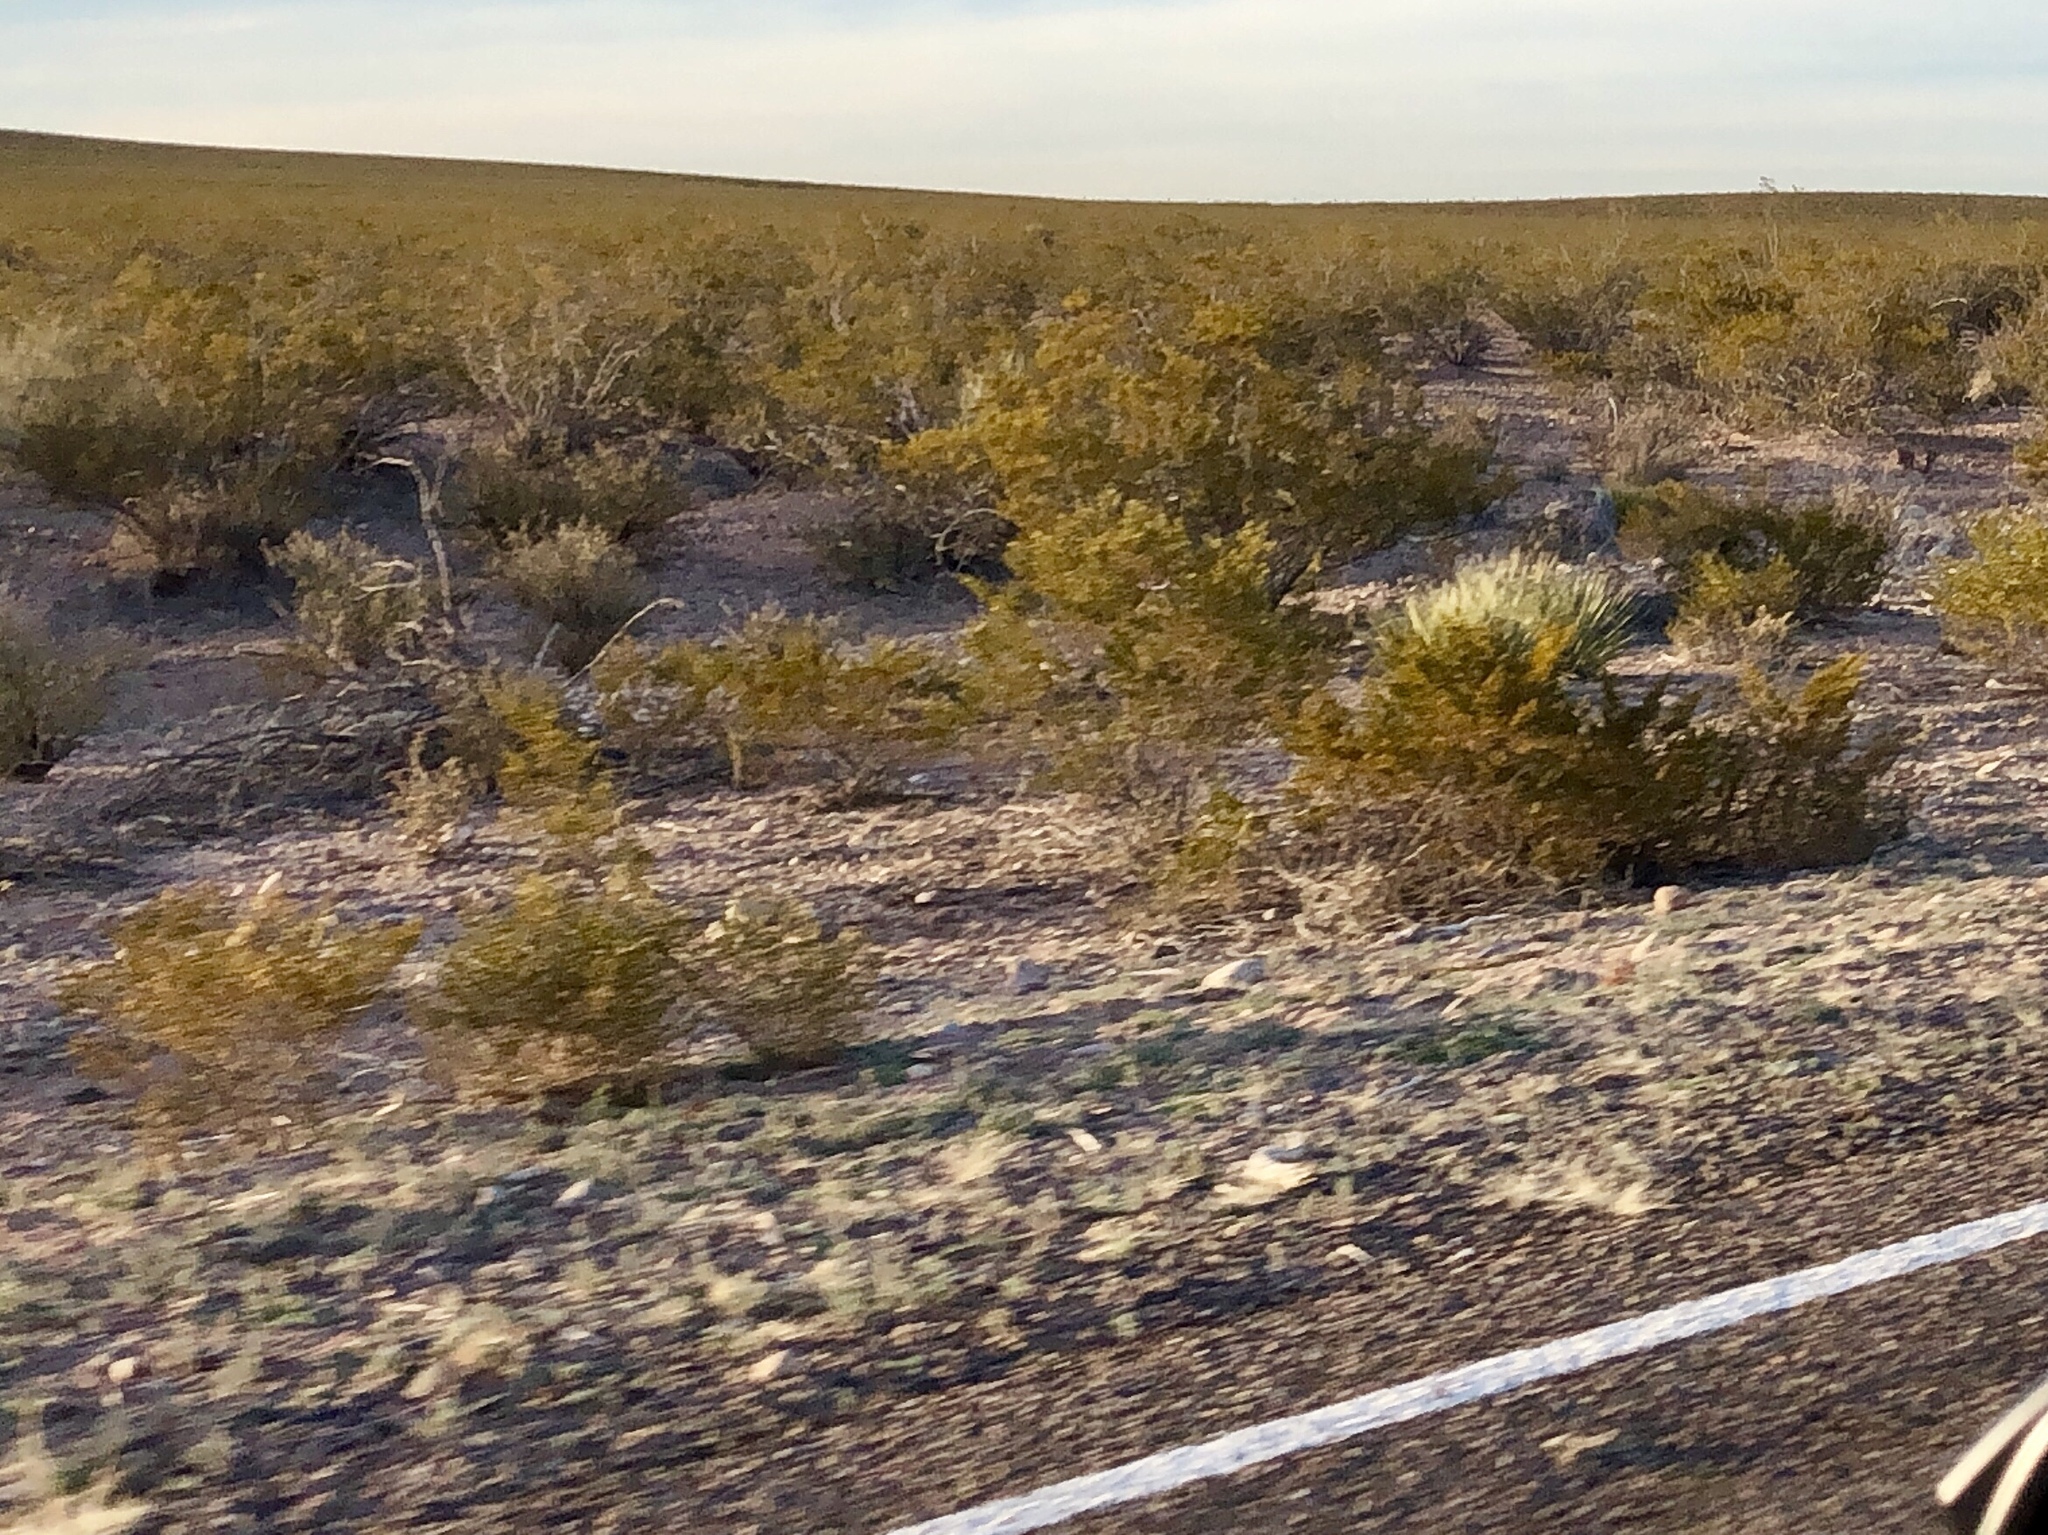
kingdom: Plantae
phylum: Tracheophyta
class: Magnoliopsida
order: Zygophyllales
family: Zygophyllaceae
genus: Larrea
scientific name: Larrea tridentata
